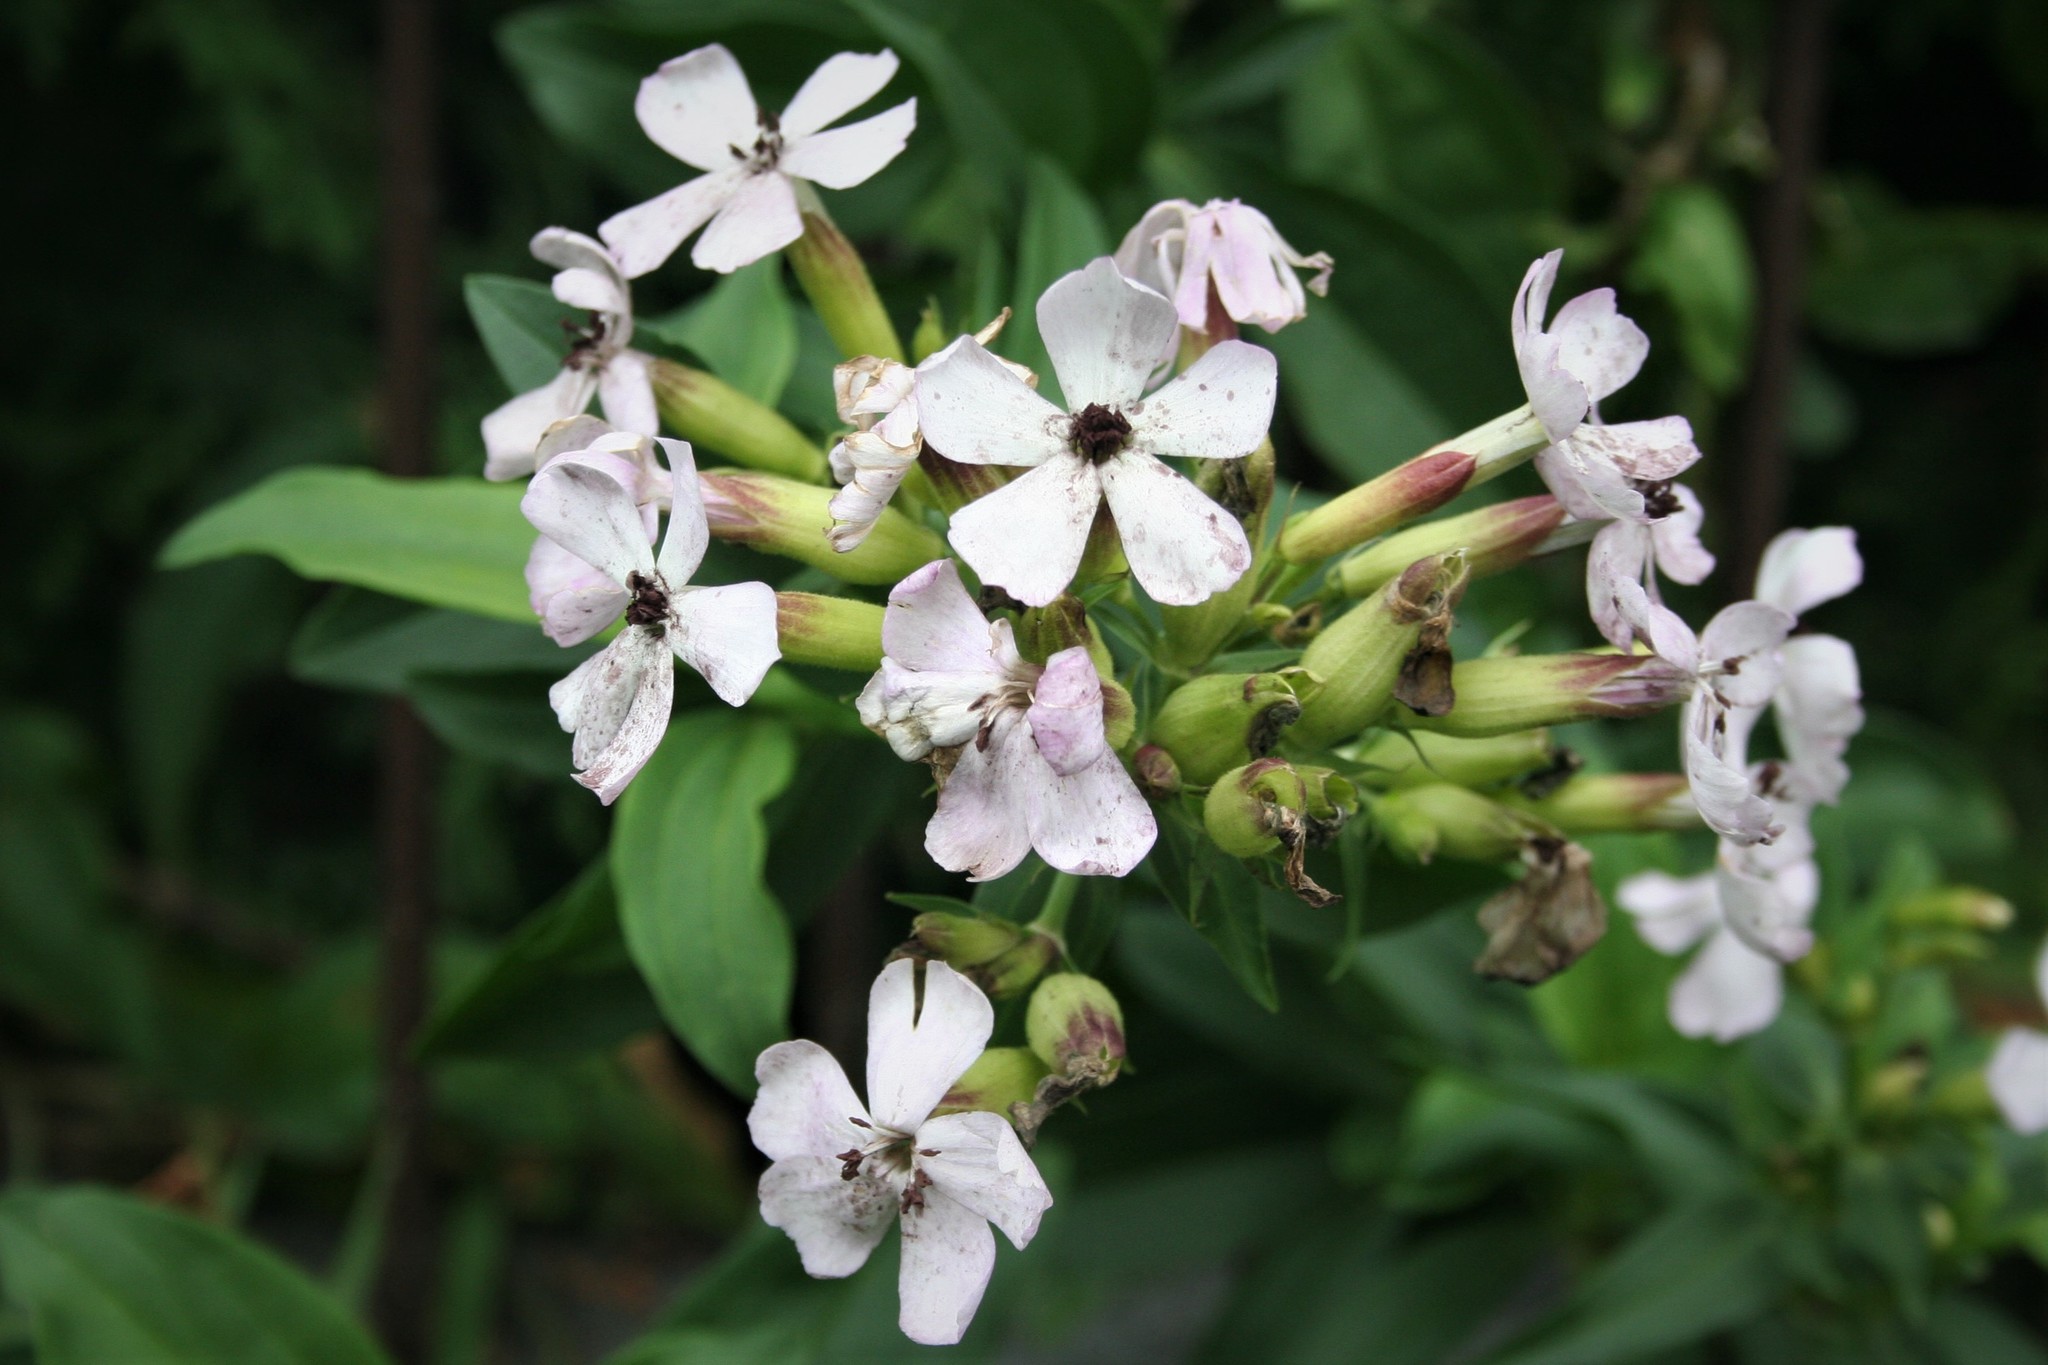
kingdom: Plantae
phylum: Tracheophyta
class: Magnoliopsida
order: Caryophyllales
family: Caryophyllaceae
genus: Saponaria
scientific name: Saponaria officinalis
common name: Soapwort
